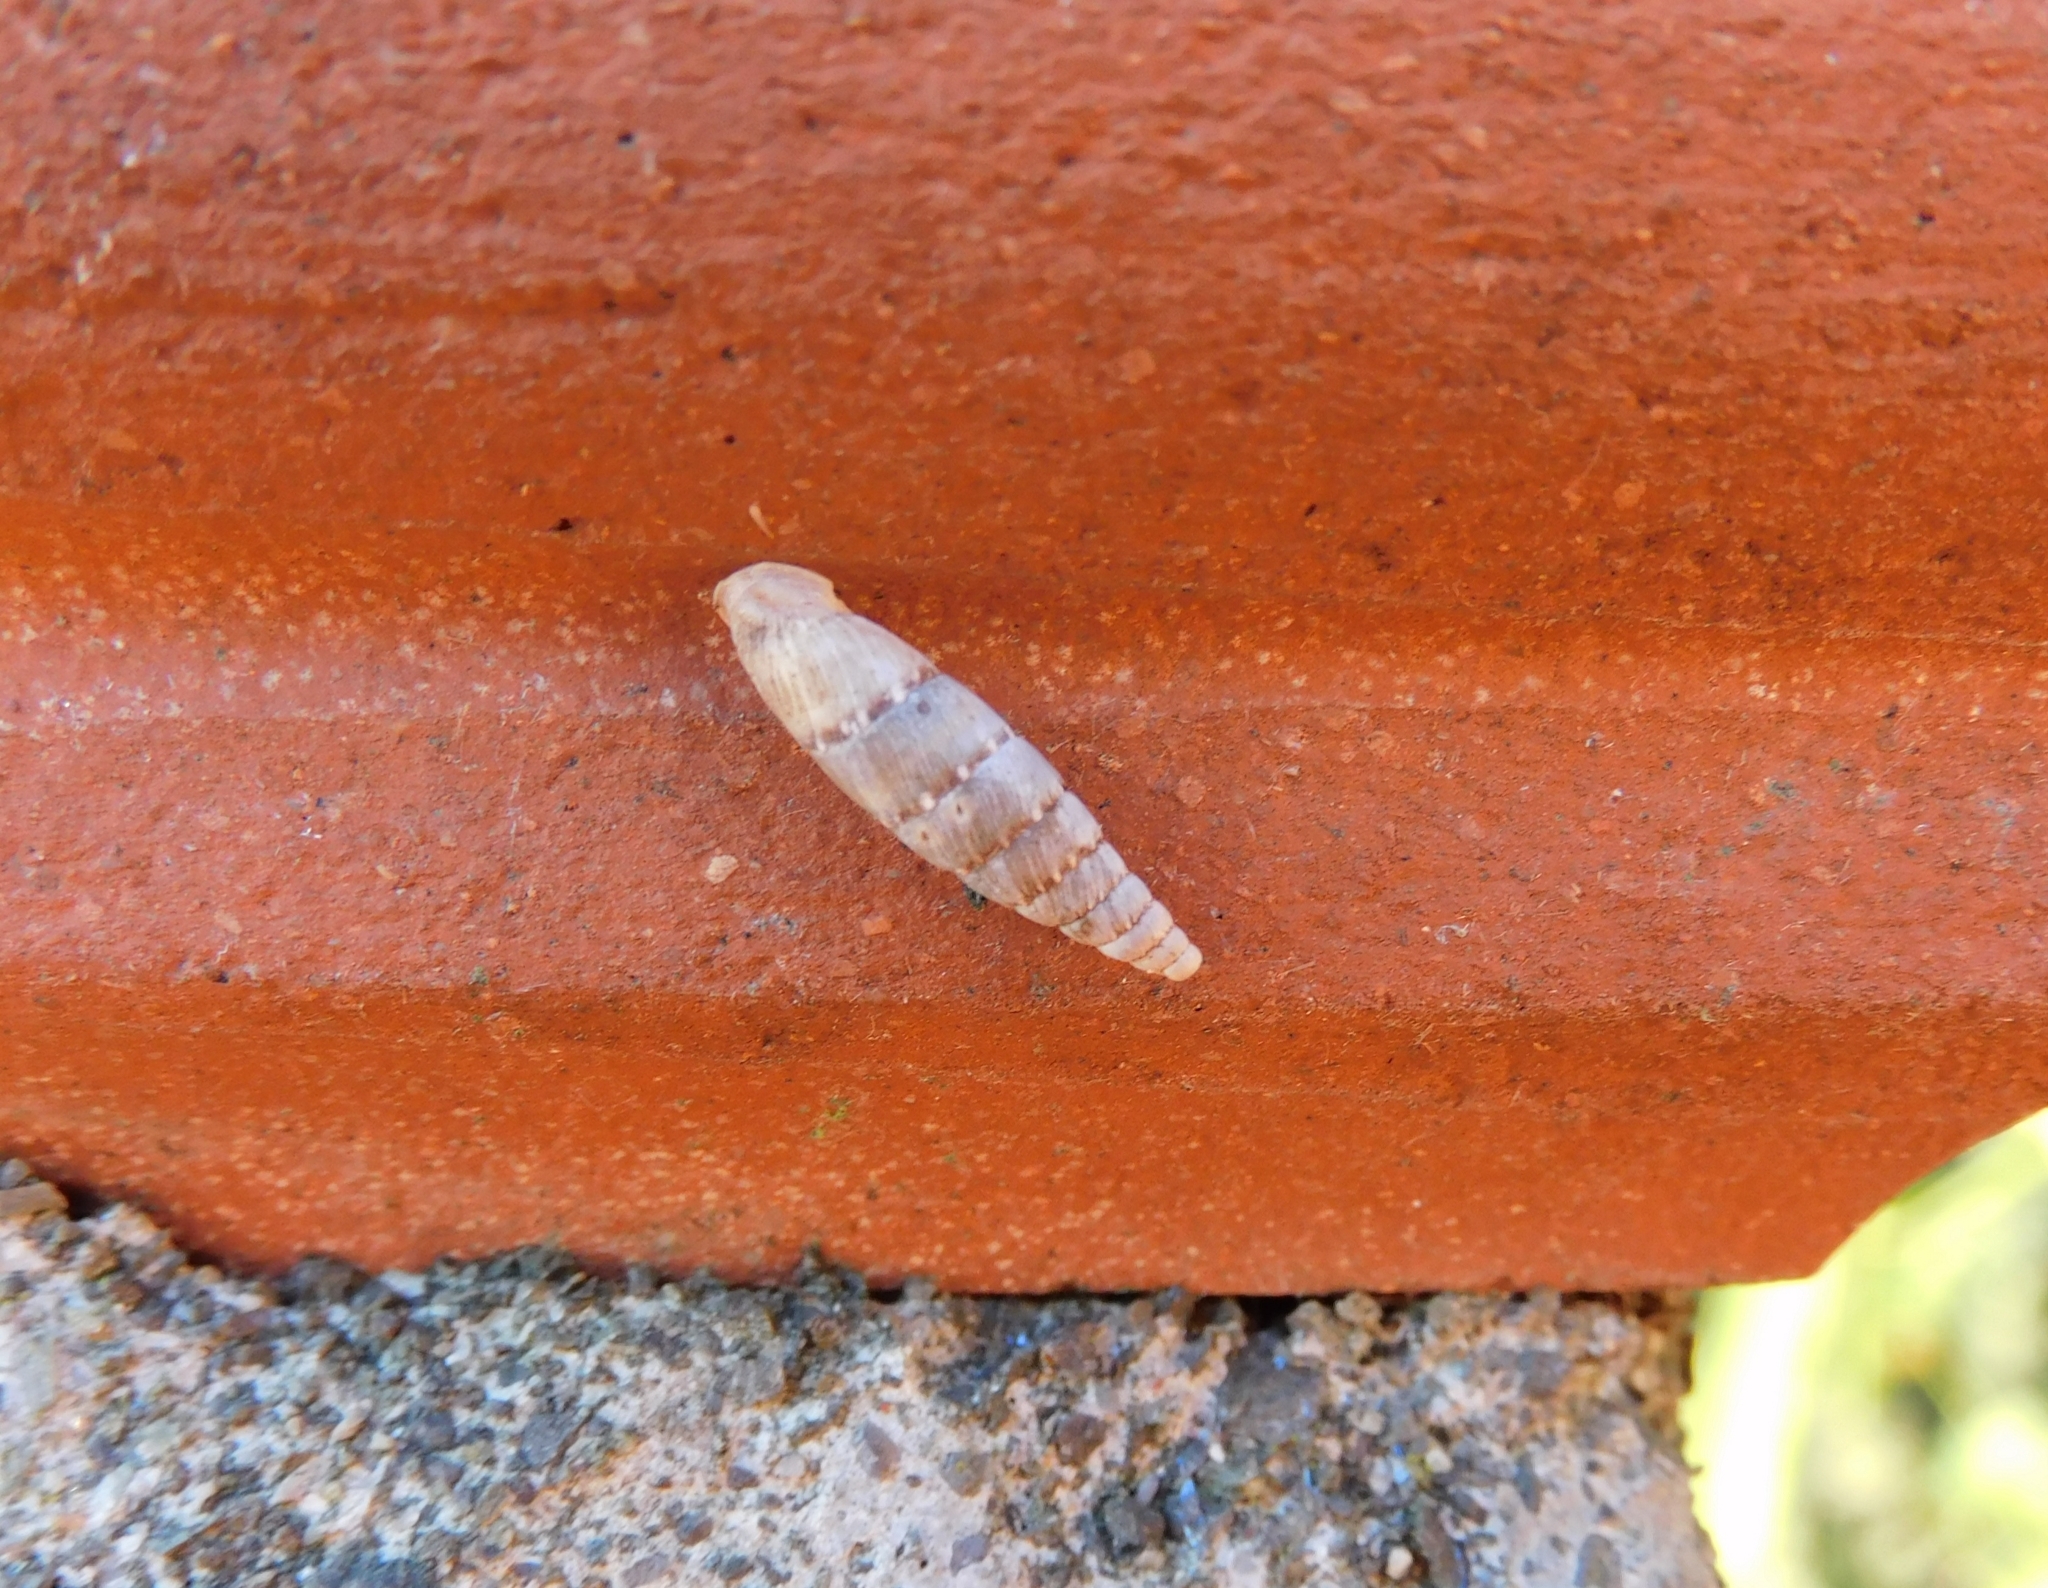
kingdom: Animalia
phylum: Mollusca
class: Gastropoda
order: Stylommatophora
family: Clausiliidae
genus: Papillifera
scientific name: Papillifera papillaris
